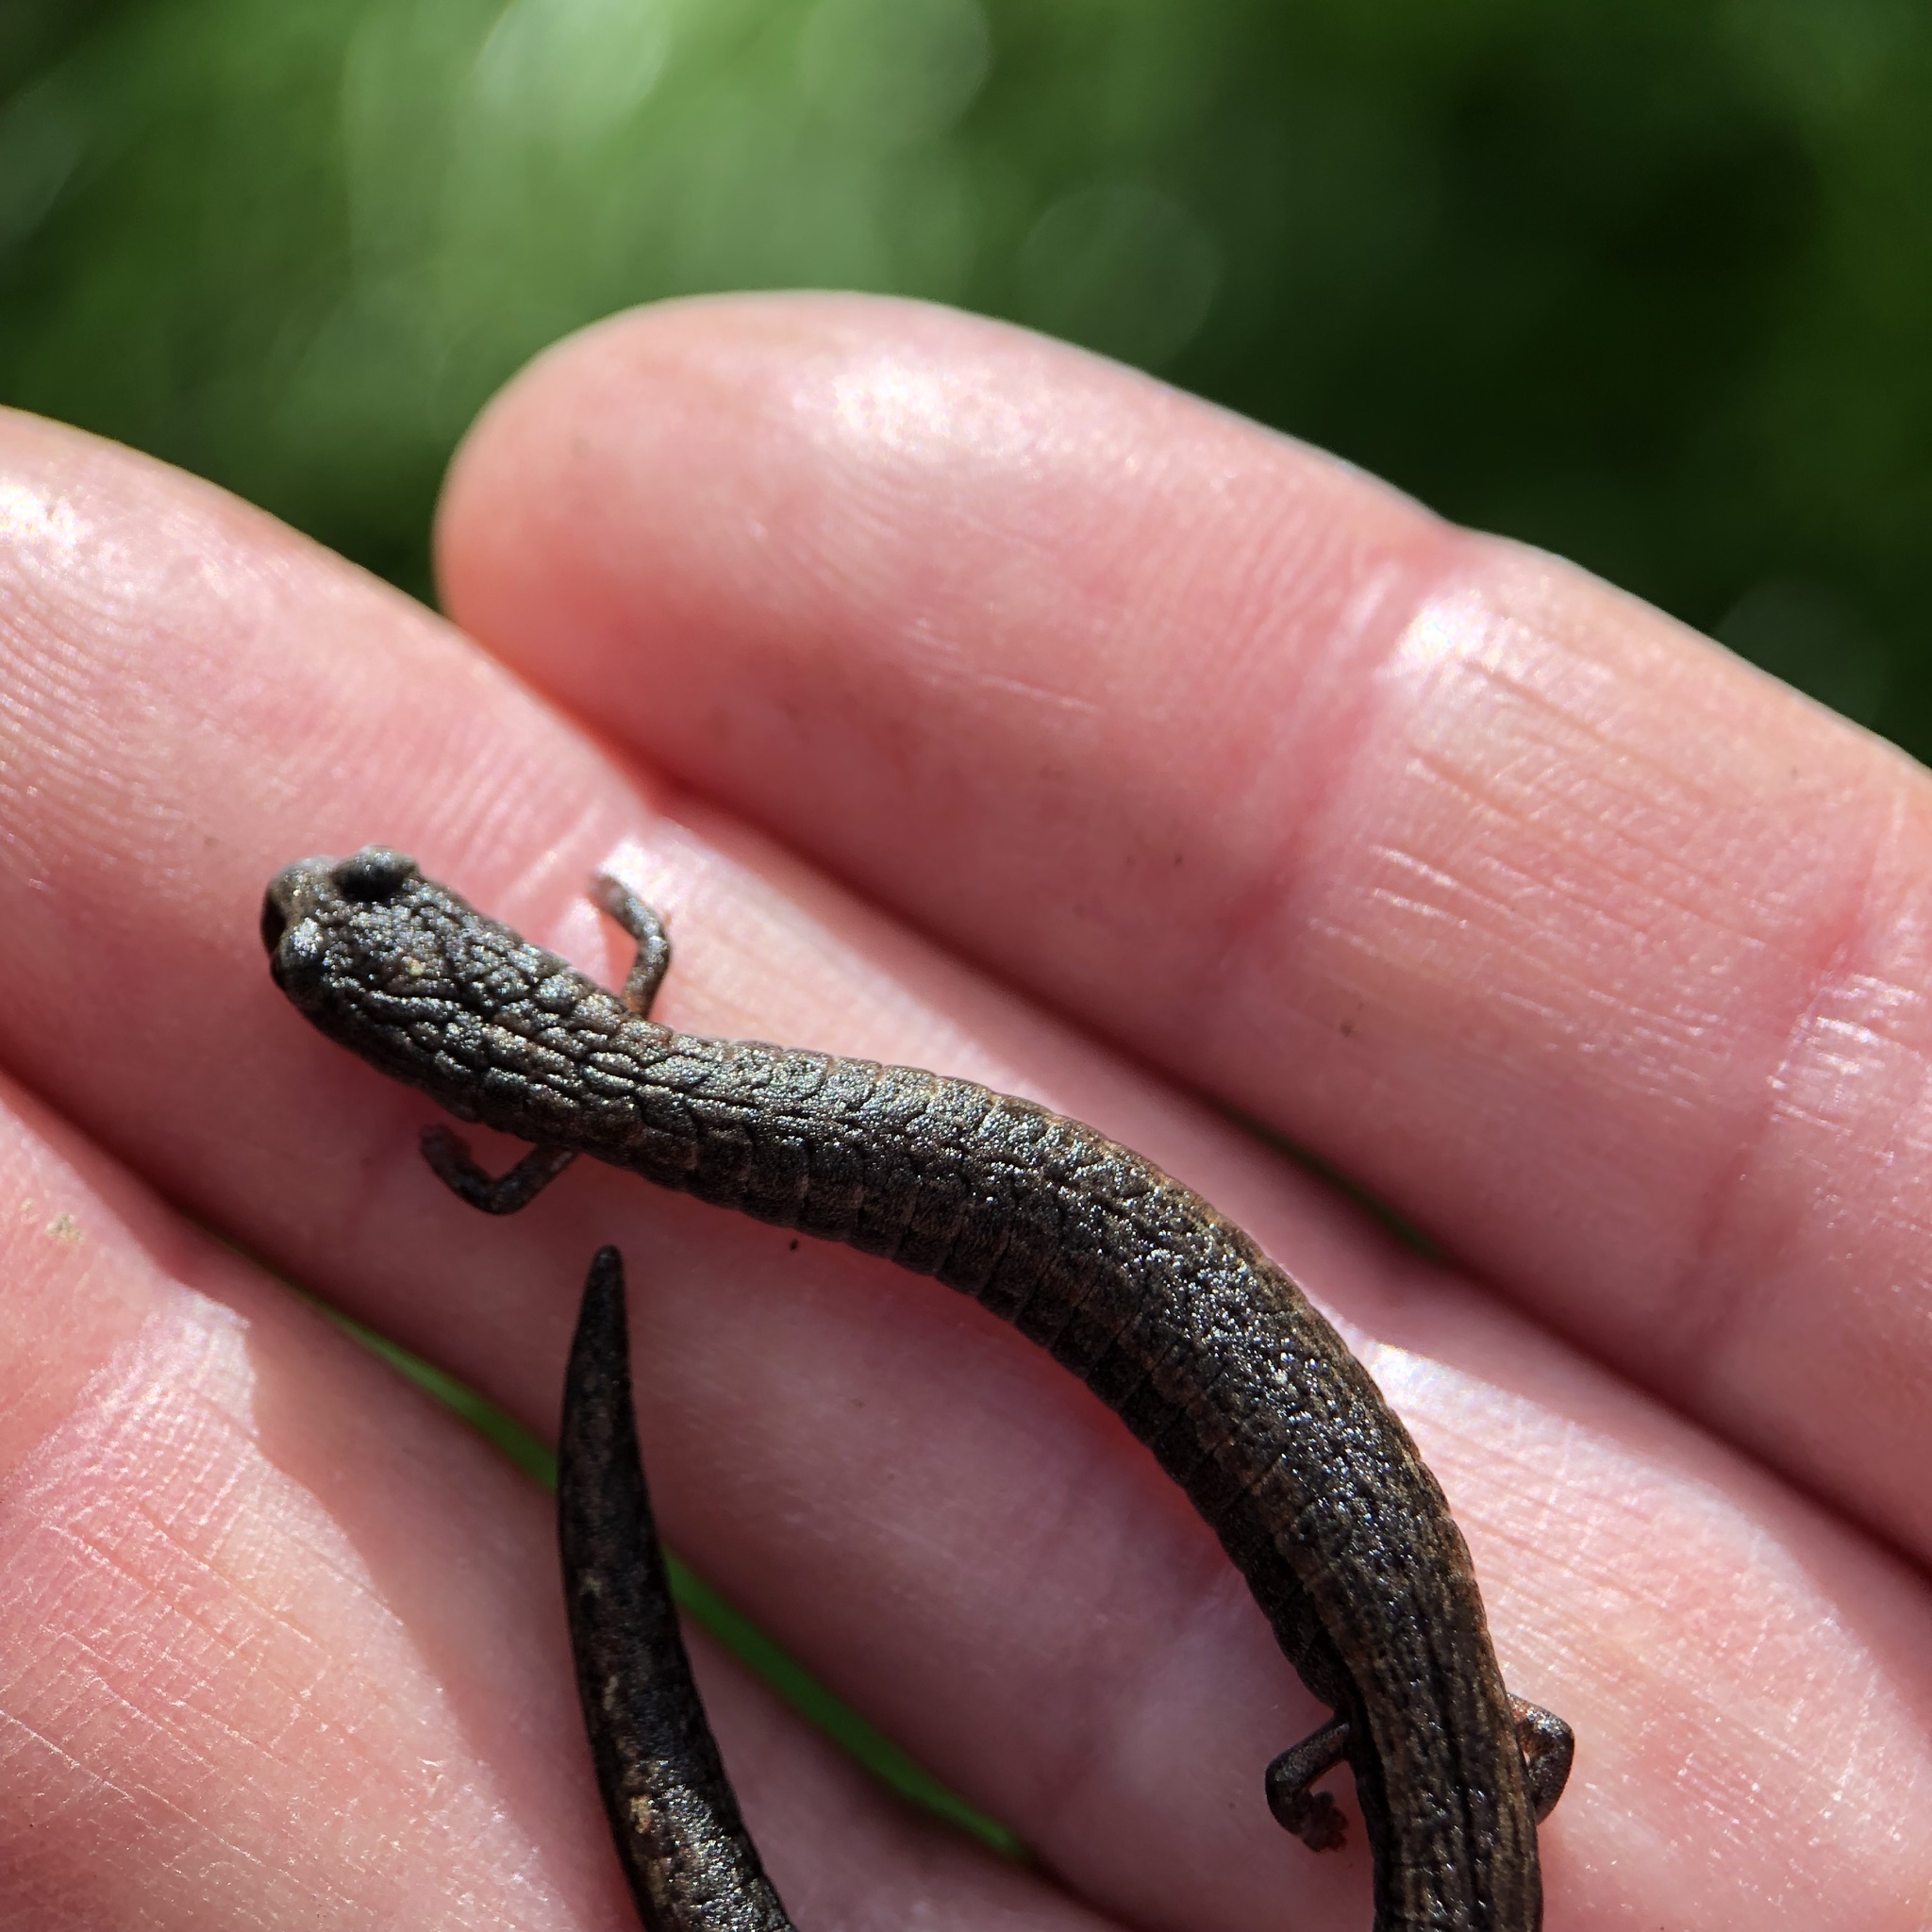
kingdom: Animalia
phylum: Chordata
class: Amphibia
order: Caudata
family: Plethodontidae
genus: Batrachoseps
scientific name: Batrachoseps attenuatus
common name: California slender salamander
